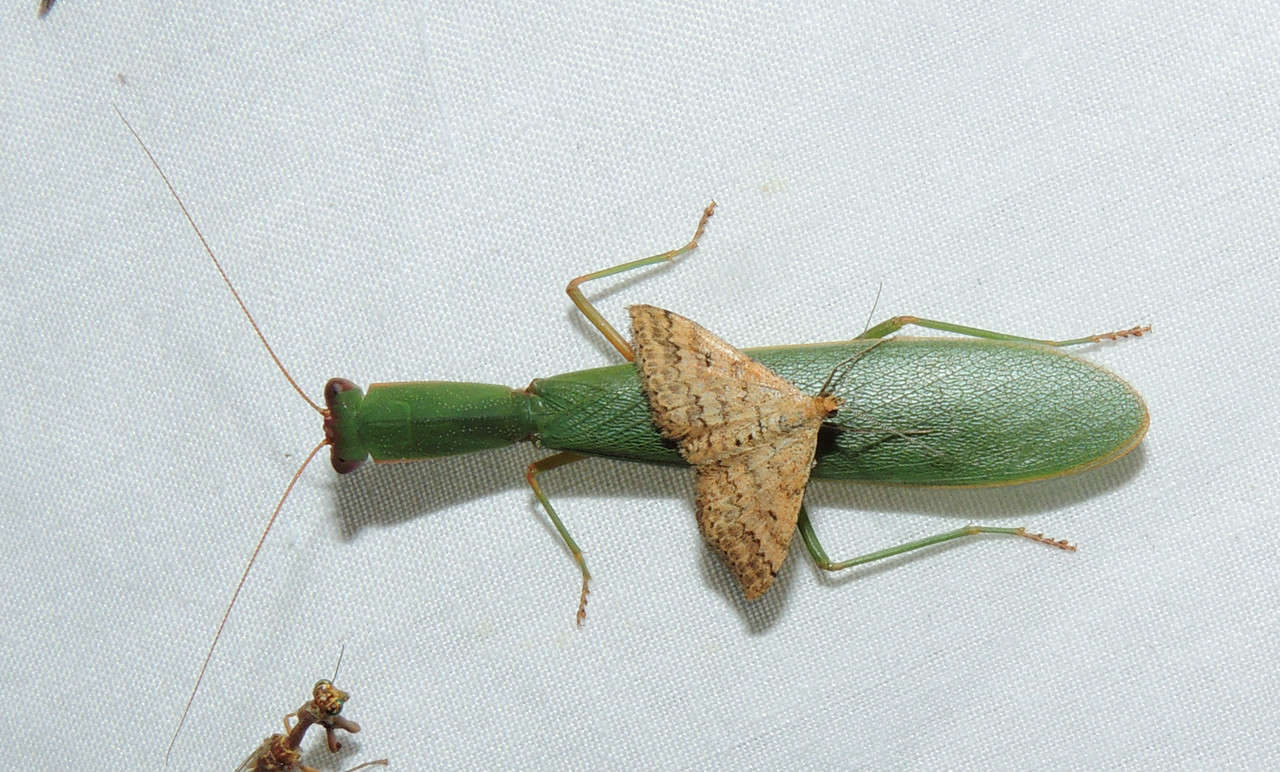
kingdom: Animalia
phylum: Arthropoda
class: Insecta
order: Lepidoptera
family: Geometridae
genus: Scopula
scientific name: Scopula rubraria
